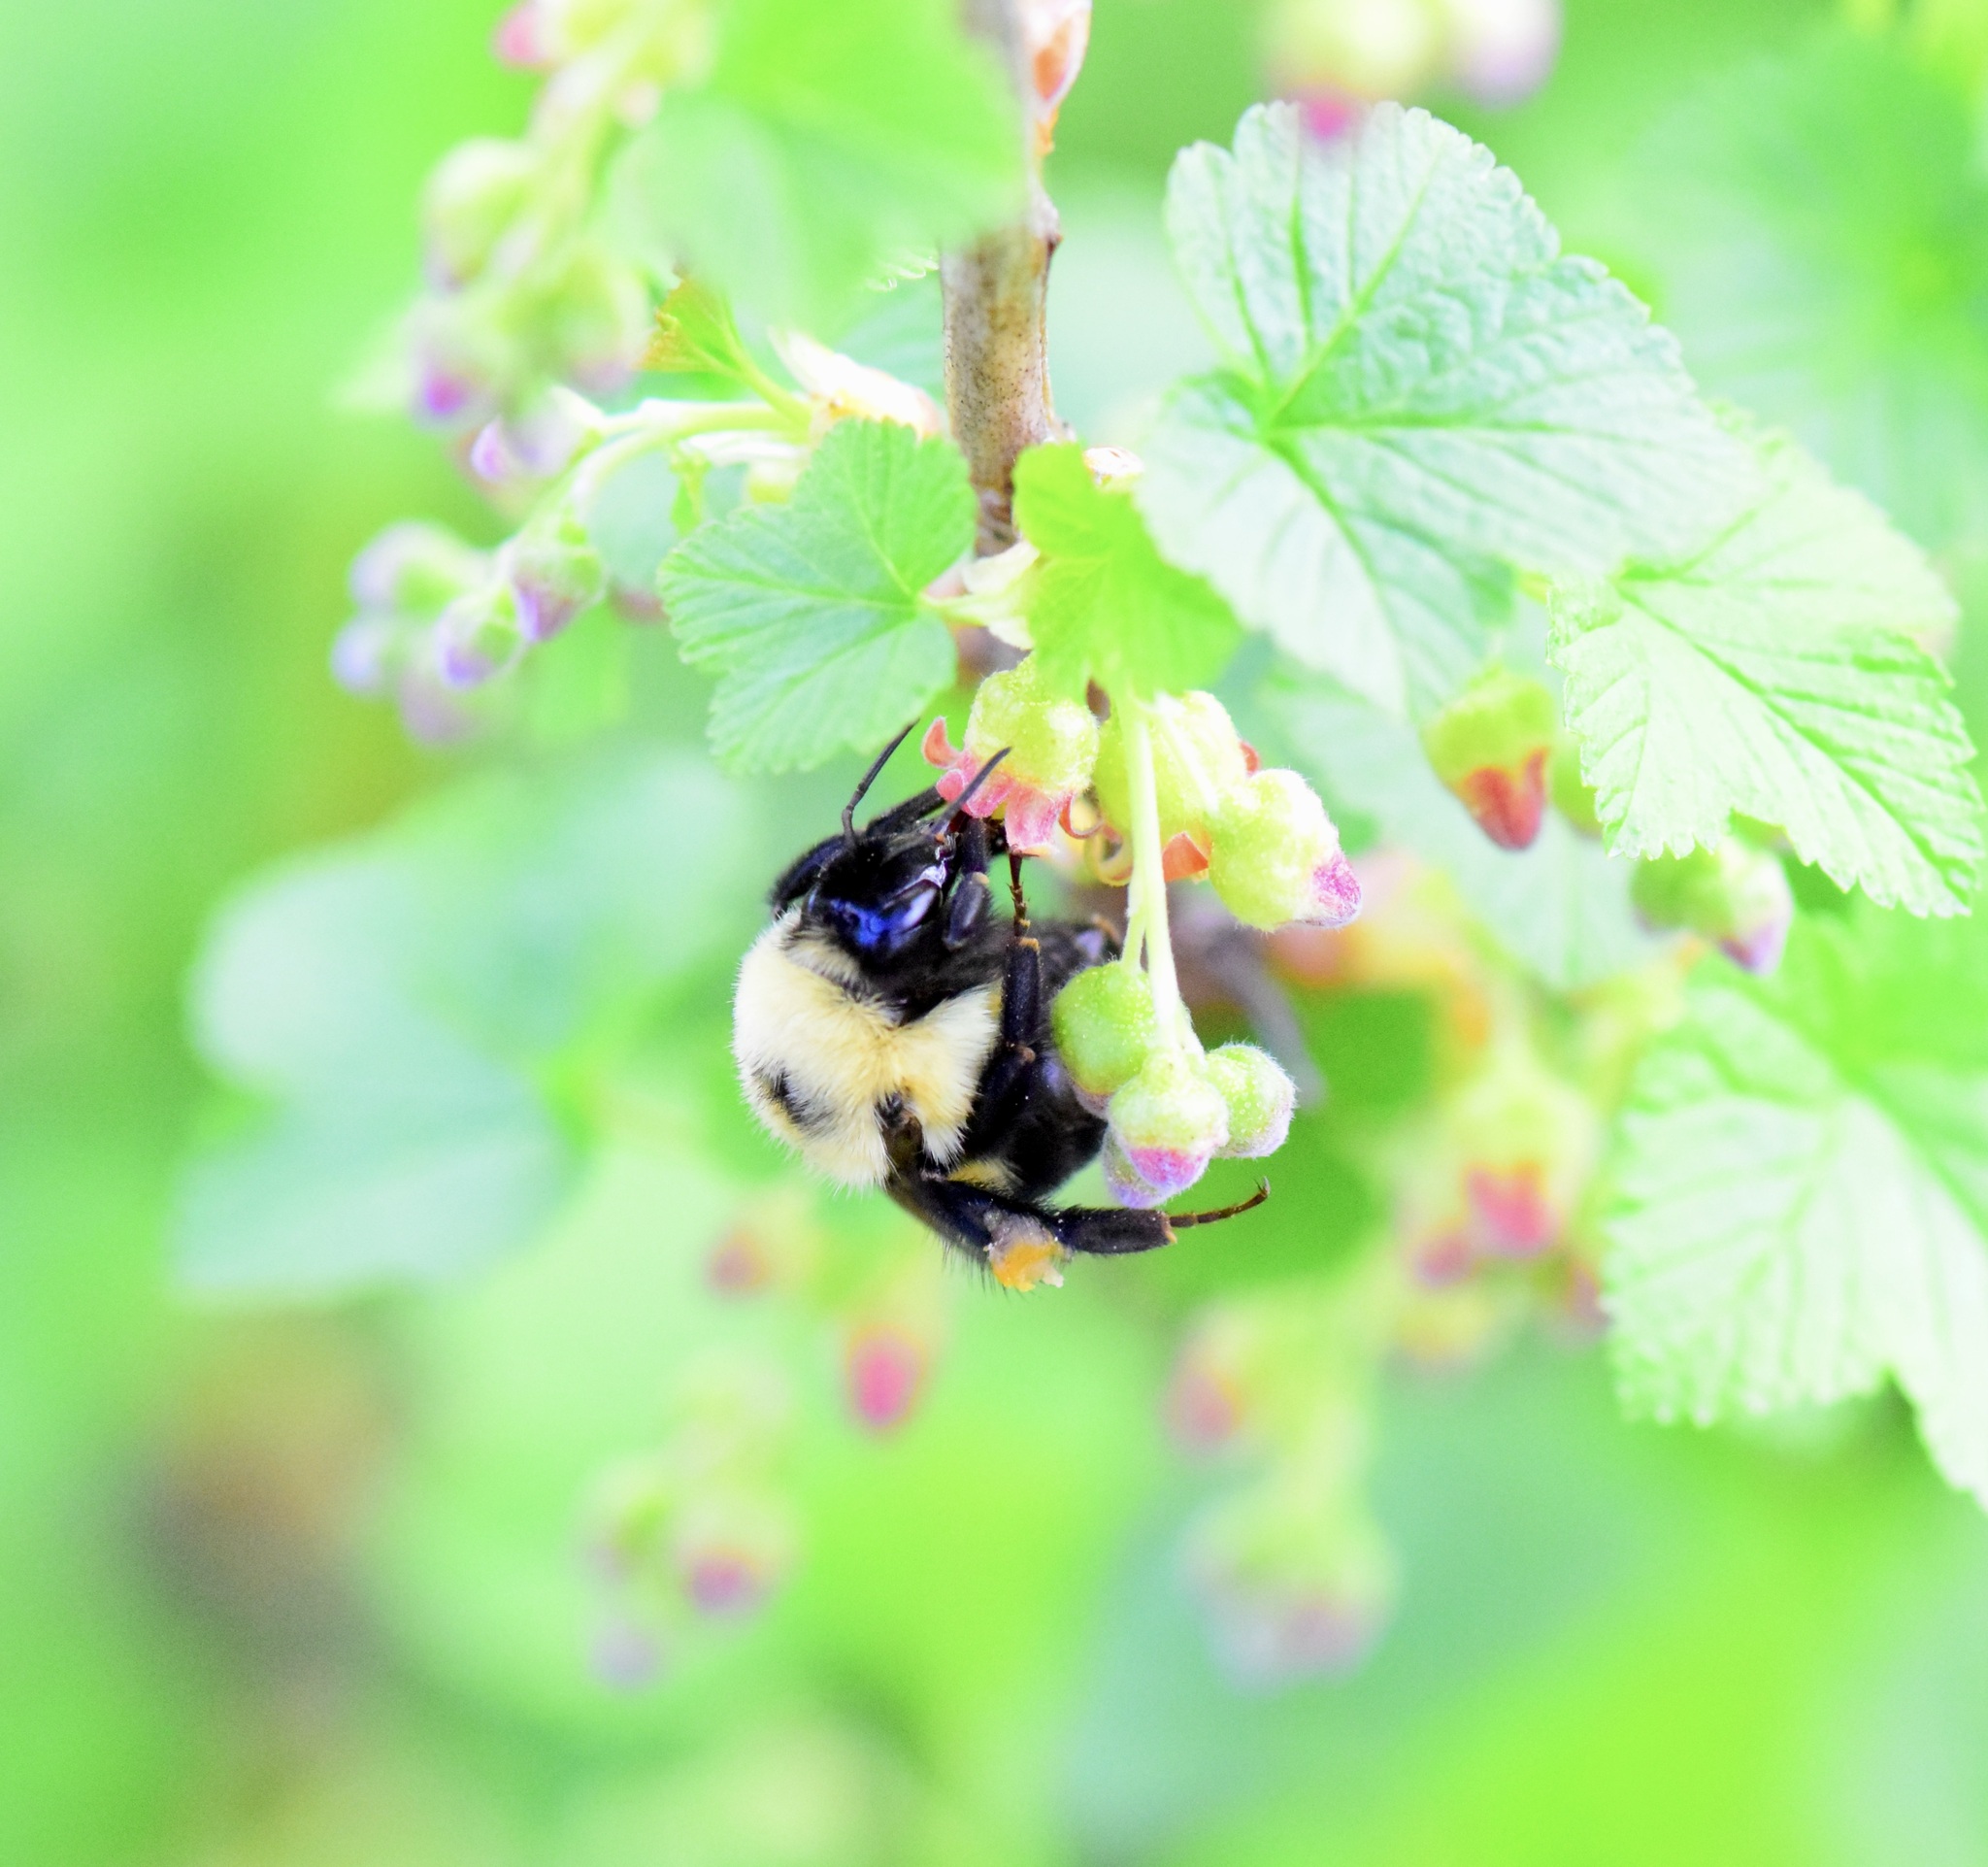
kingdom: Animalia
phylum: Arthropoda
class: Insecta
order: Hymenoptera
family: Apidae
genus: Bombus
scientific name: Bombus bimaculatus
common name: Two-spotted bumble bee
